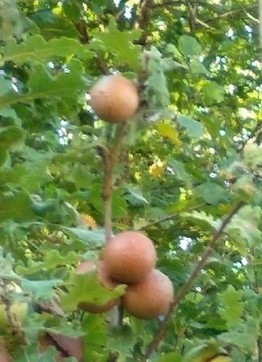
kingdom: Animalia
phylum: Arthropoda
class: Insecta
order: Hymenoptera
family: Cynipidae
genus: Andricus
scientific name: Andricus kollari
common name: Marble gall
